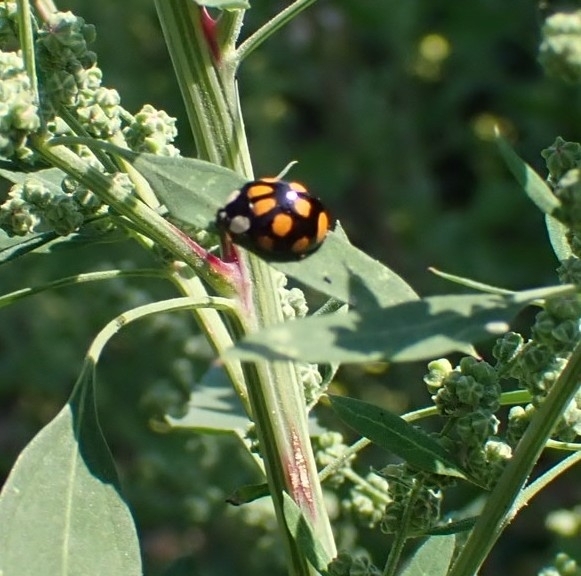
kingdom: Animalia
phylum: Arthropoda
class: Insecta
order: Coleoptera
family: Coccinellidae
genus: Harmonia
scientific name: Harmonia axyridis
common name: Harlequin ladybird
